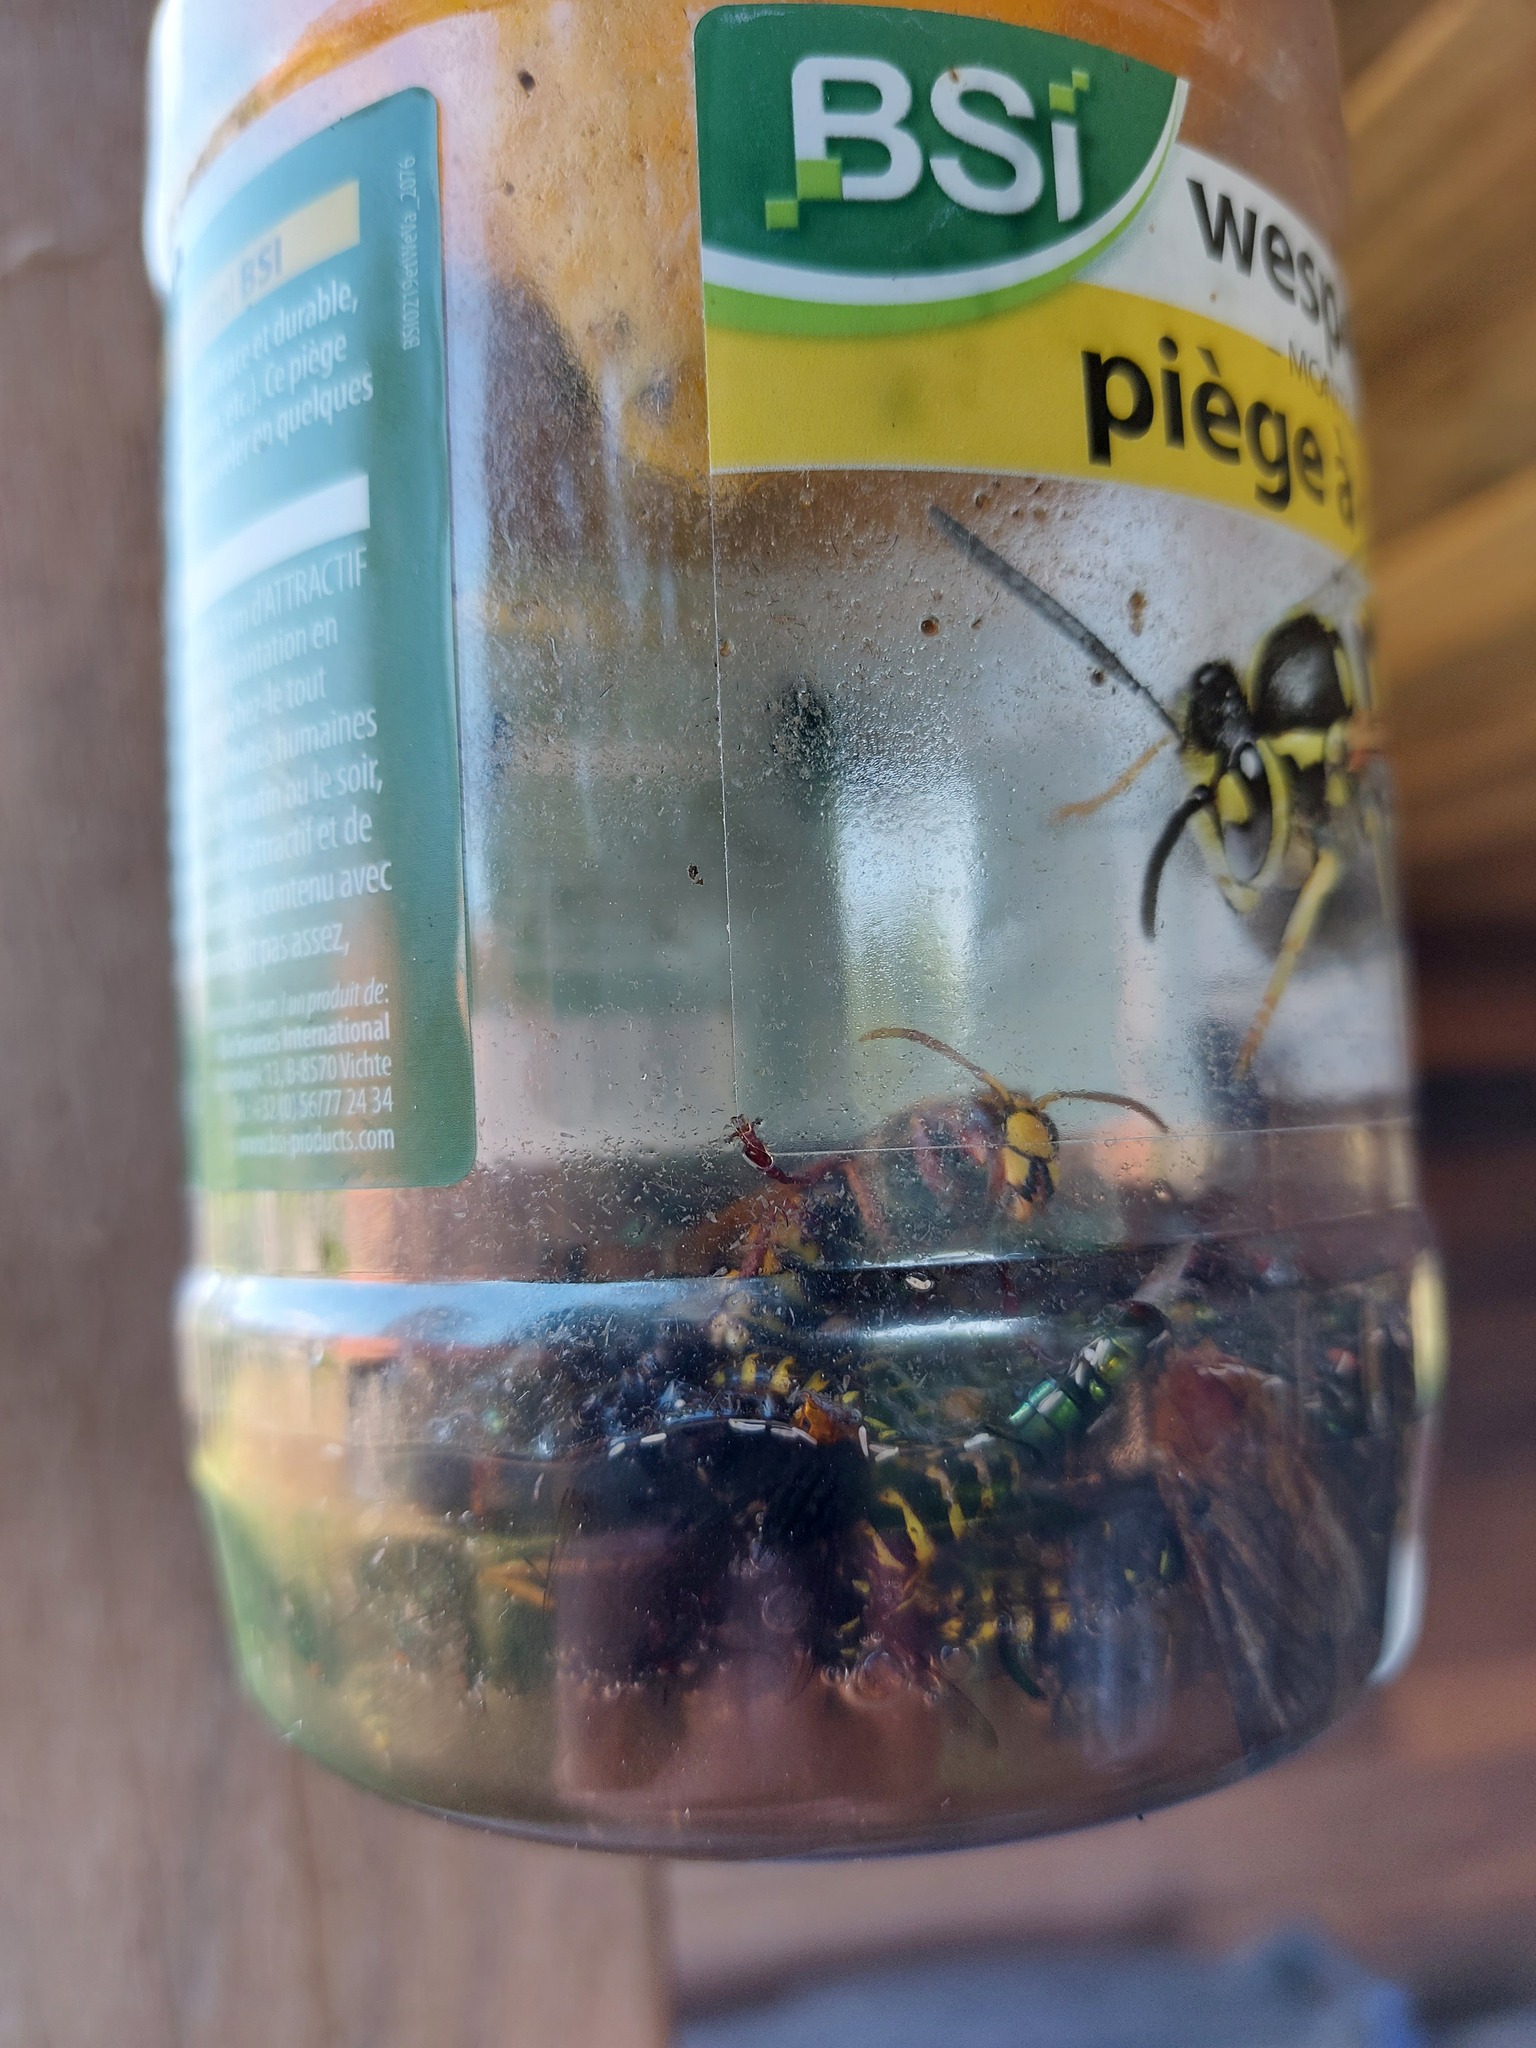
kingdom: Animalia
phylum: Arthropoda
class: Insecta
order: Hymenoptera
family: Vespidae
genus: Vespa
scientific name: Vespa crabro
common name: Hornet
